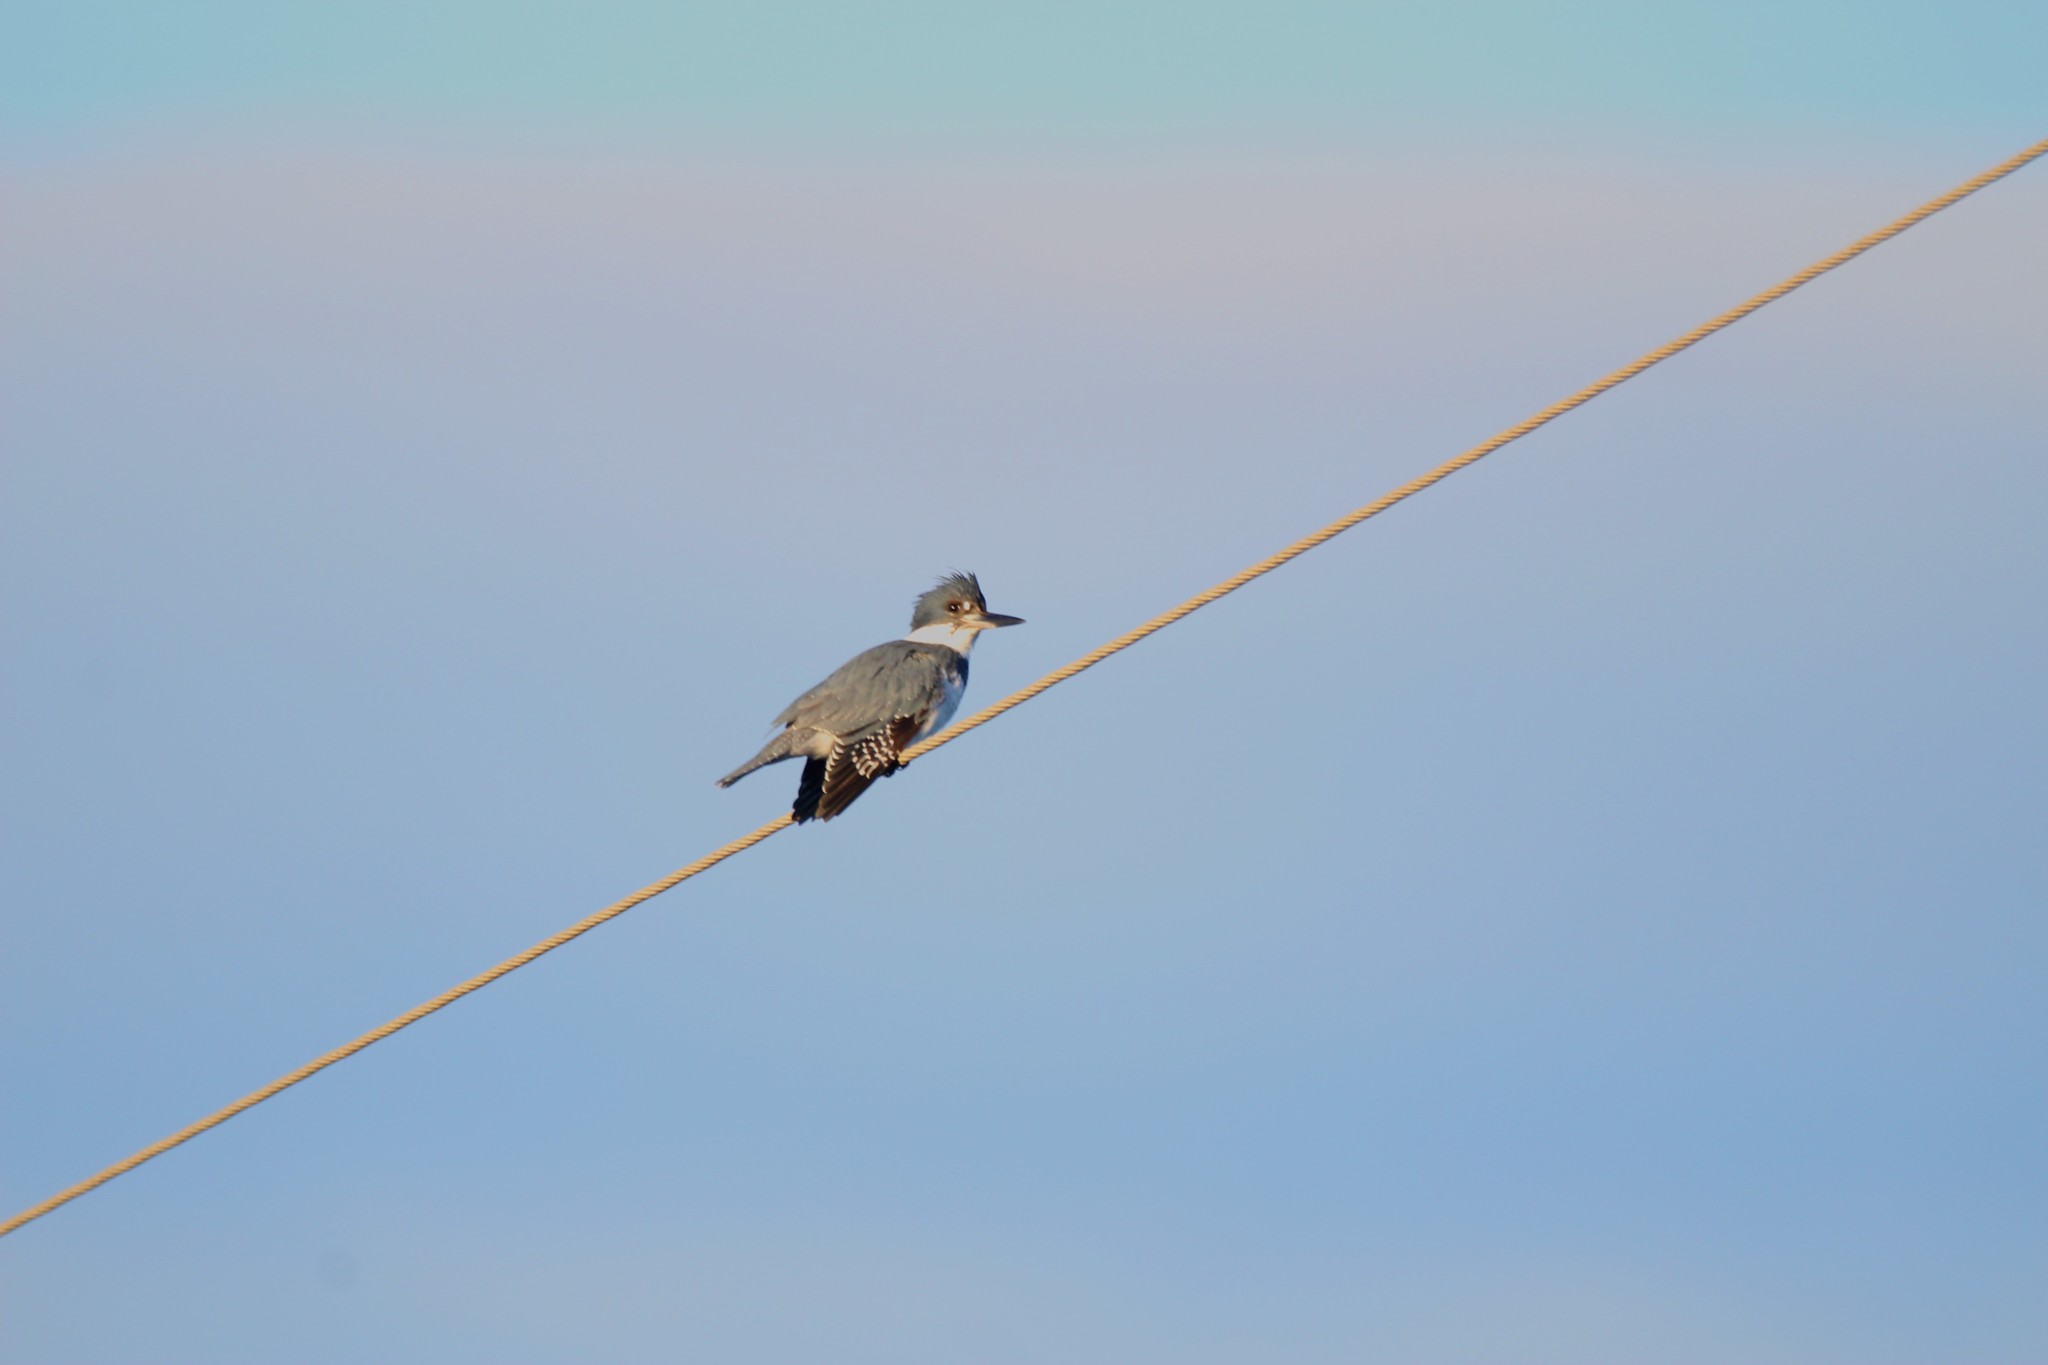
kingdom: Animalia
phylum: Chordata
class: Aves
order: Coraciiformes
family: Alcedinidae
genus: Megaceryle
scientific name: Megaceryle alcyon
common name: Belted kingfisher
